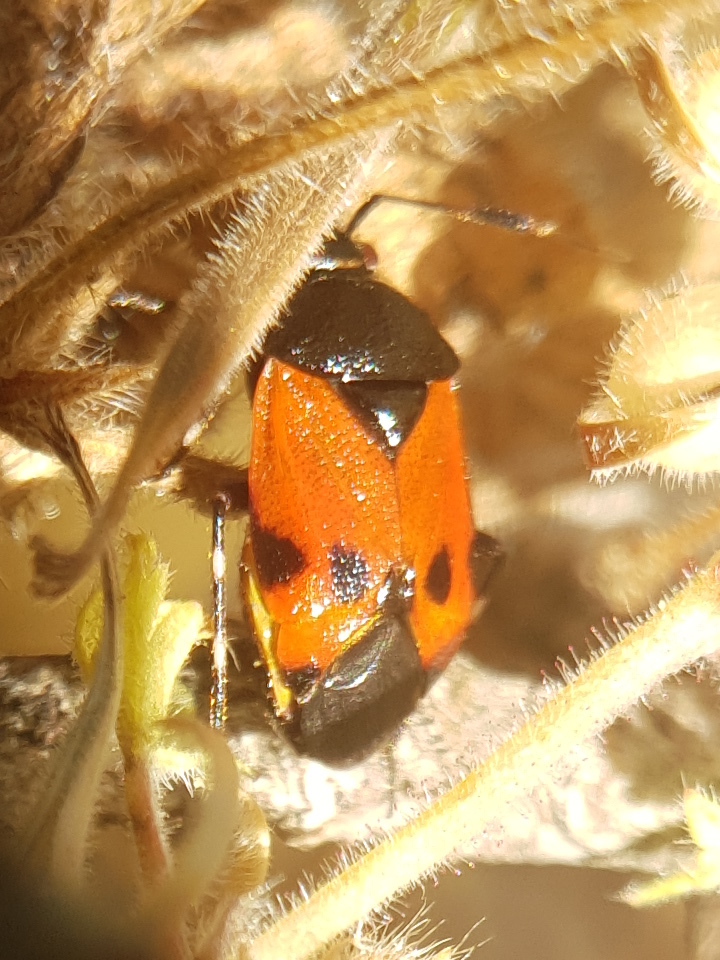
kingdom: Animalia
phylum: Arthropoda
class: Insecta
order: Hemiptera
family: Miridae
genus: Deraeocoris
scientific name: Deraeocoris rutilus
